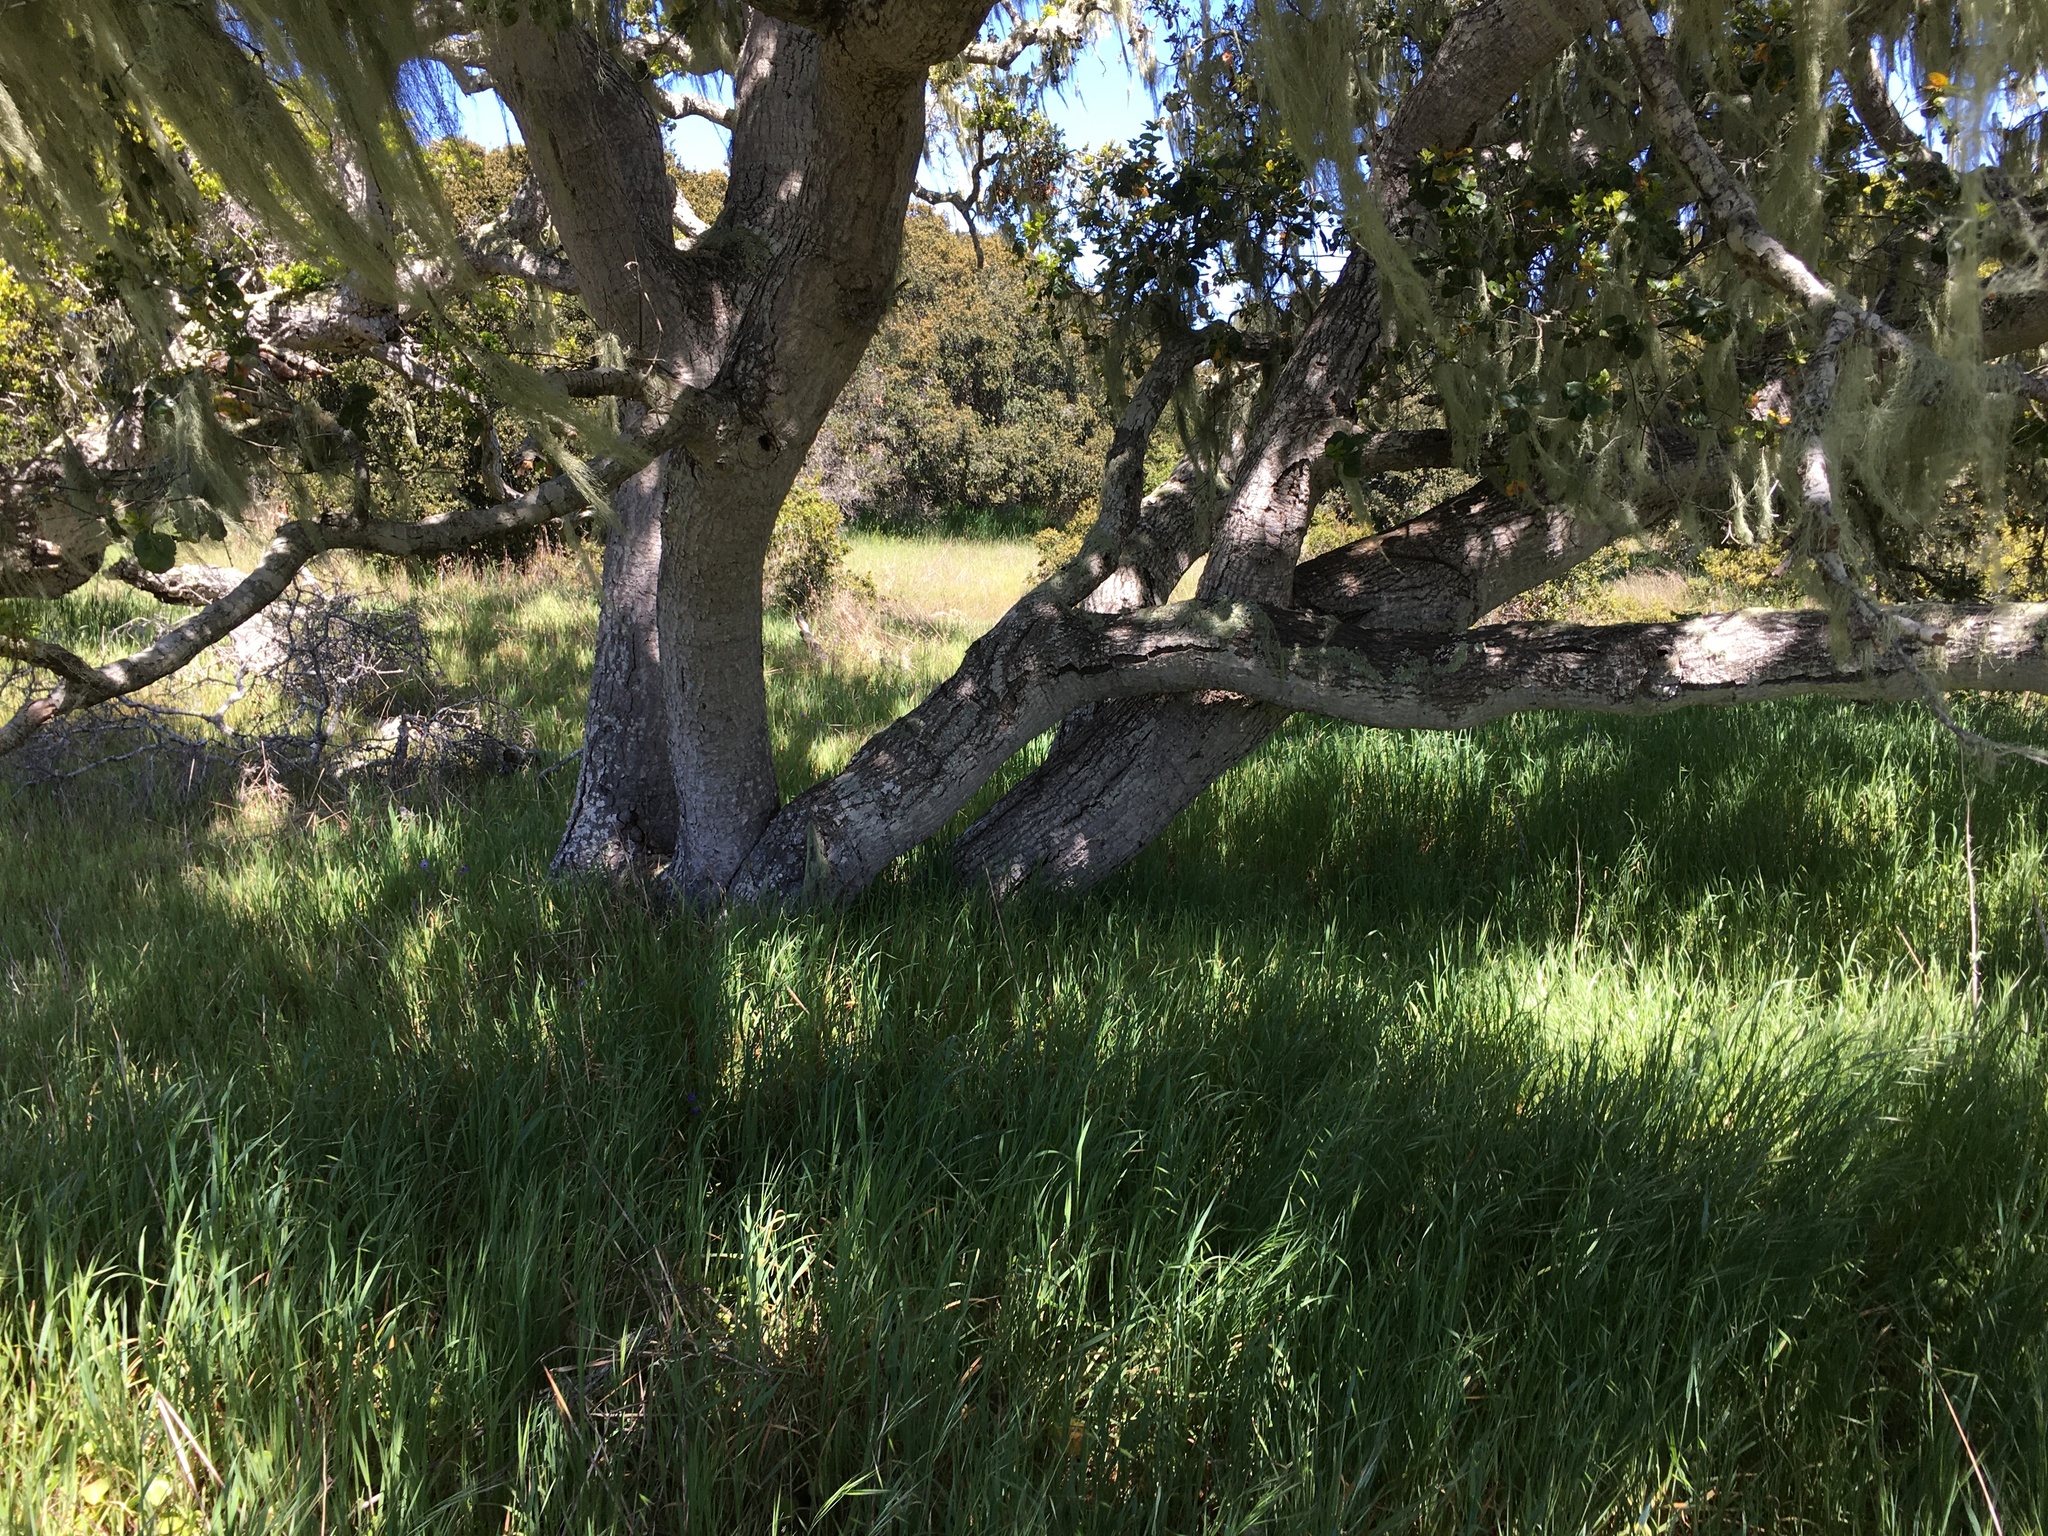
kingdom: Plantae
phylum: Tracheophyta
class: Magnoliopsida
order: Fagales
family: Fagaceae
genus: Quercus
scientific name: Quercus agrifolia
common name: California live oak
